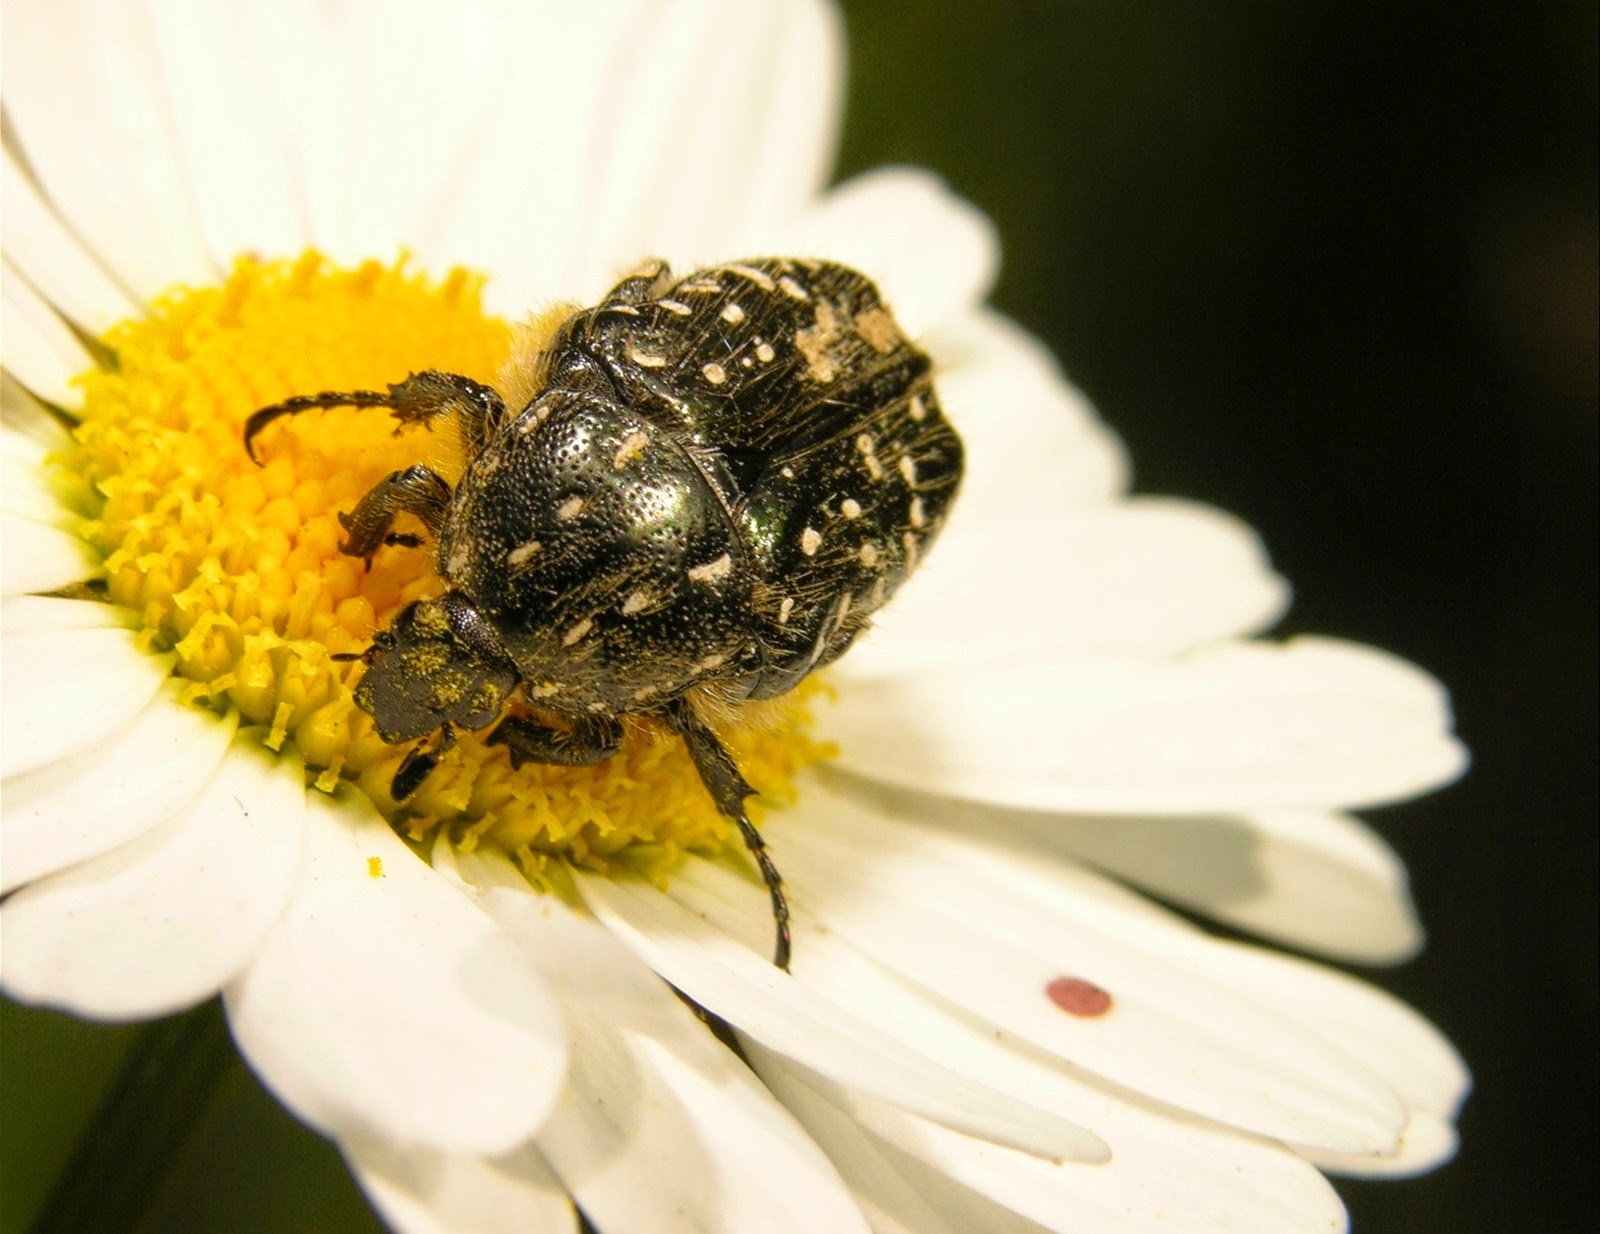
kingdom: Animalia
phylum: Arthropoda
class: Insecta
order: Coleoptera
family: Scarabaeidae
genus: Oxythyrea
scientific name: Oxythyrea funesta
